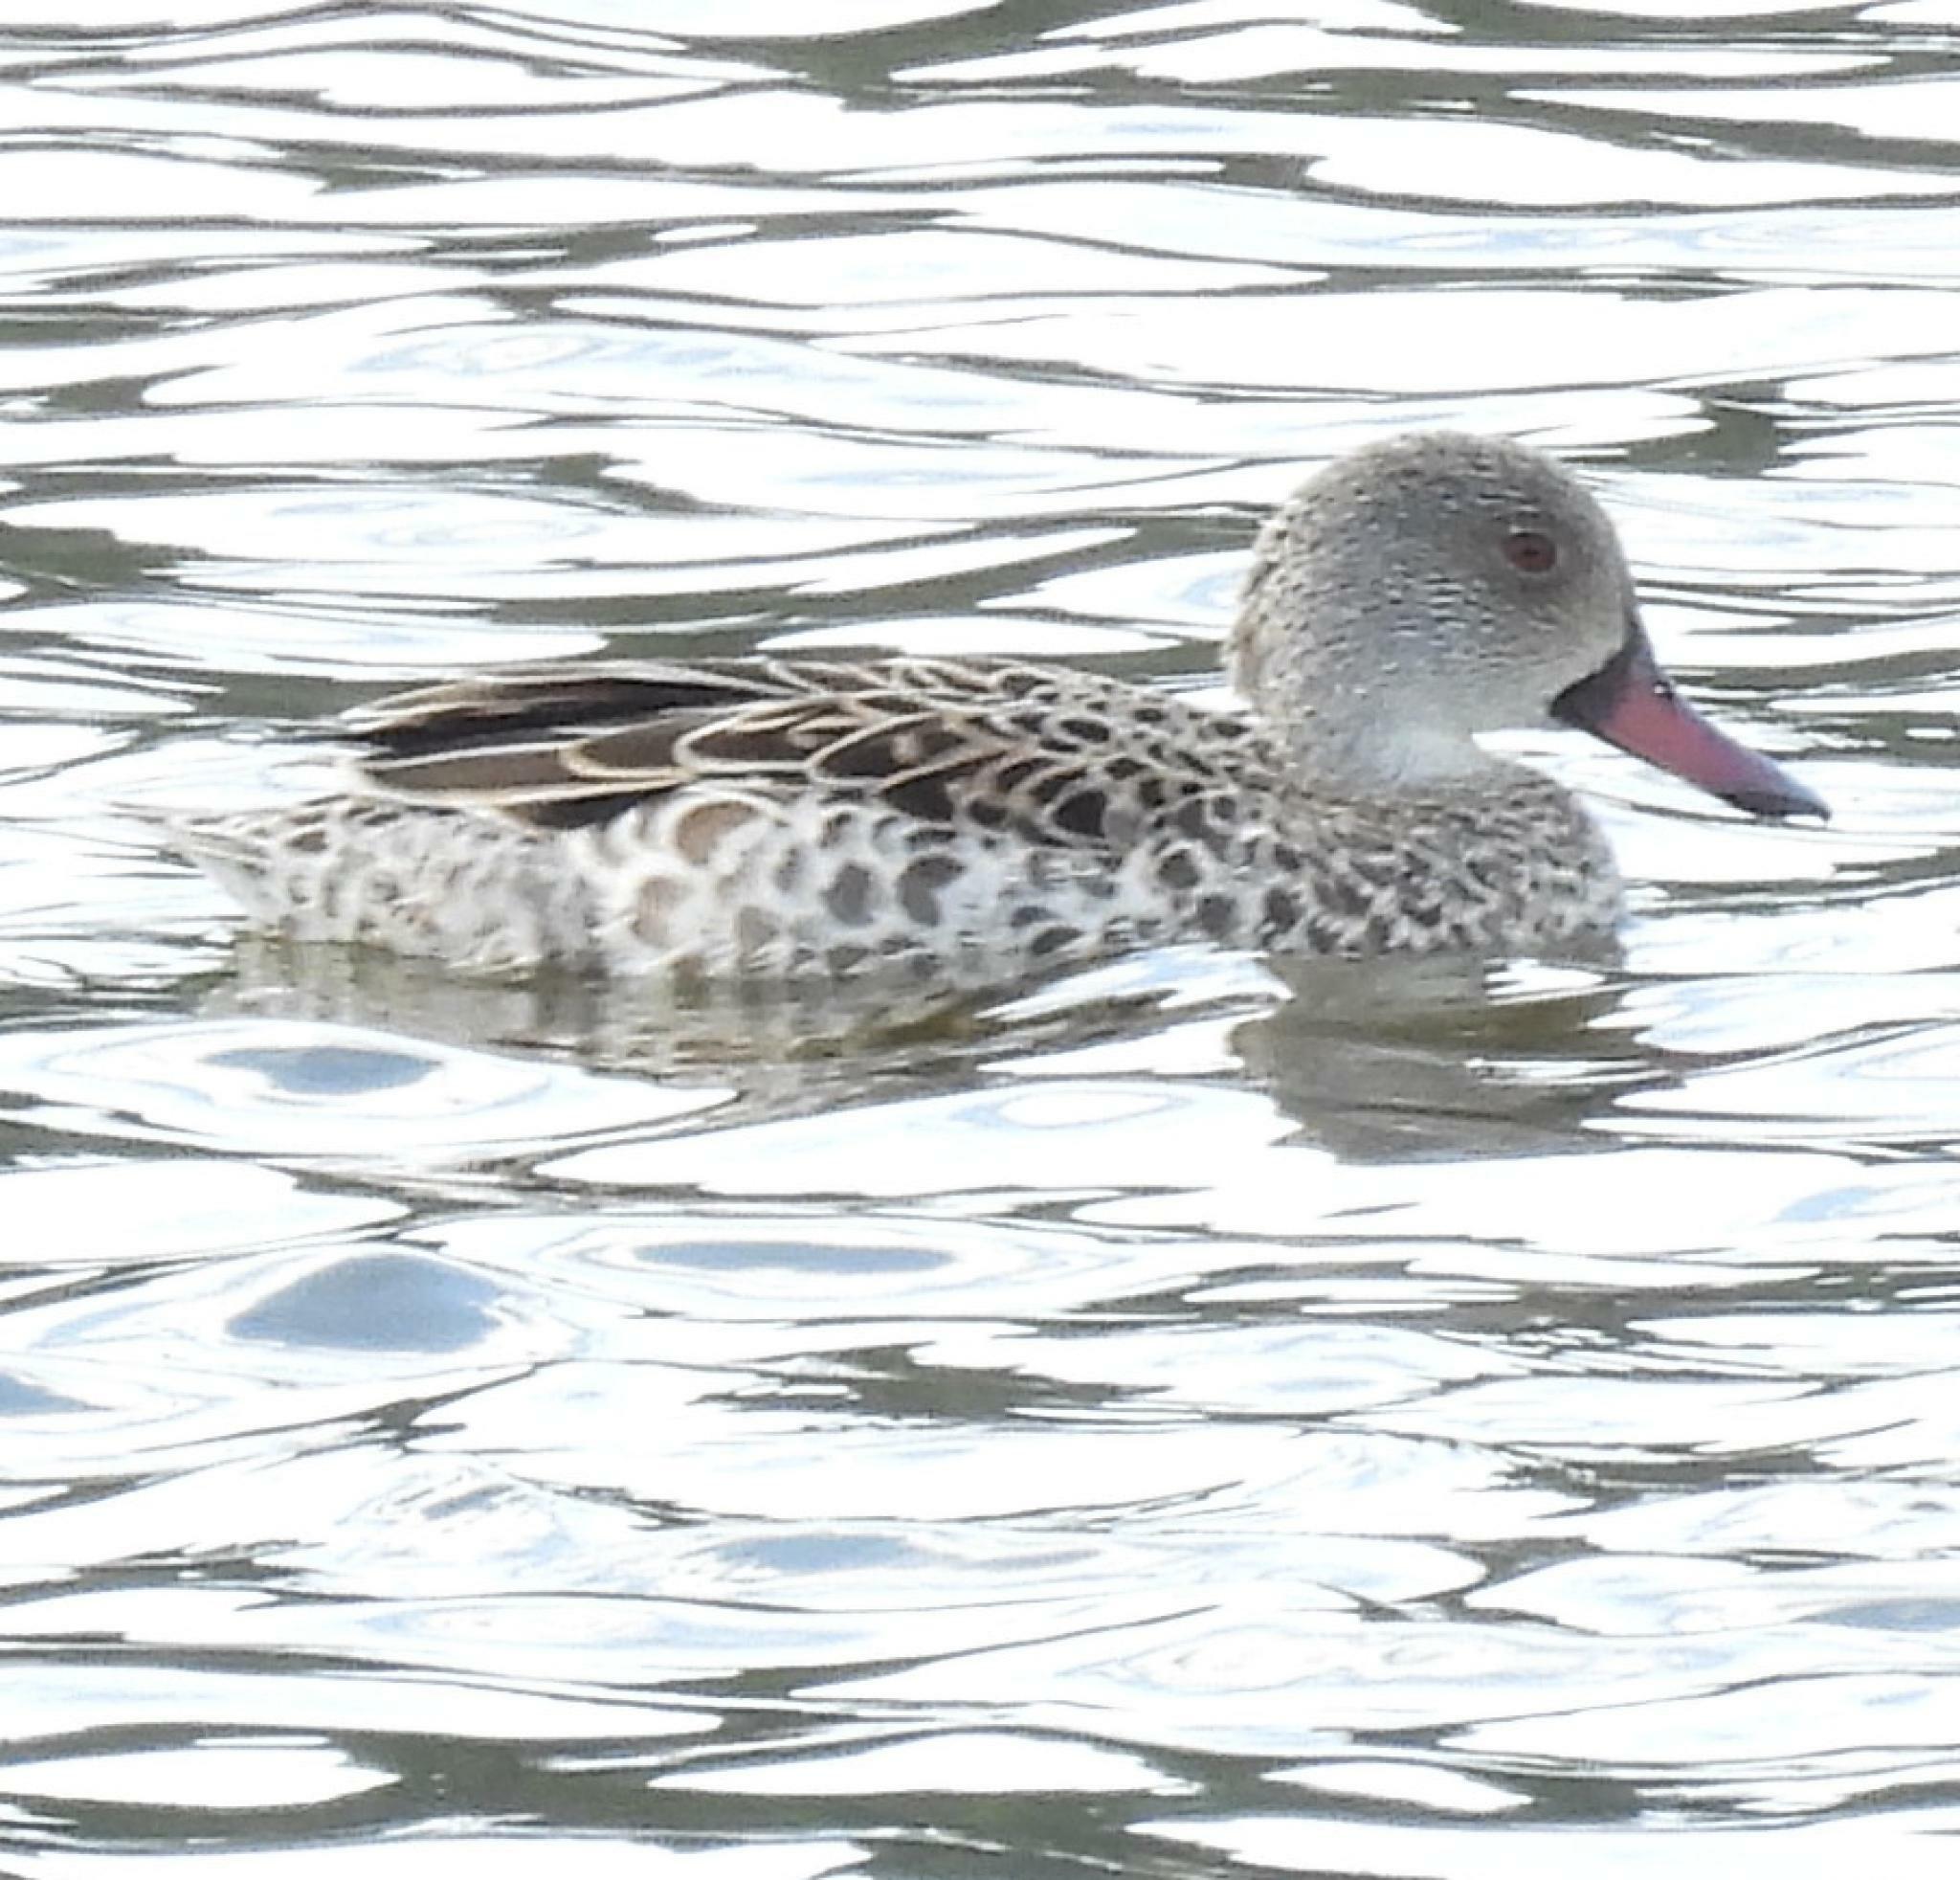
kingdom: Animalia
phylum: Chordata
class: Aves
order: Anseriformes
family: Anatidae
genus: Anas
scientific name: Anas capensis
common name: Cape teal
